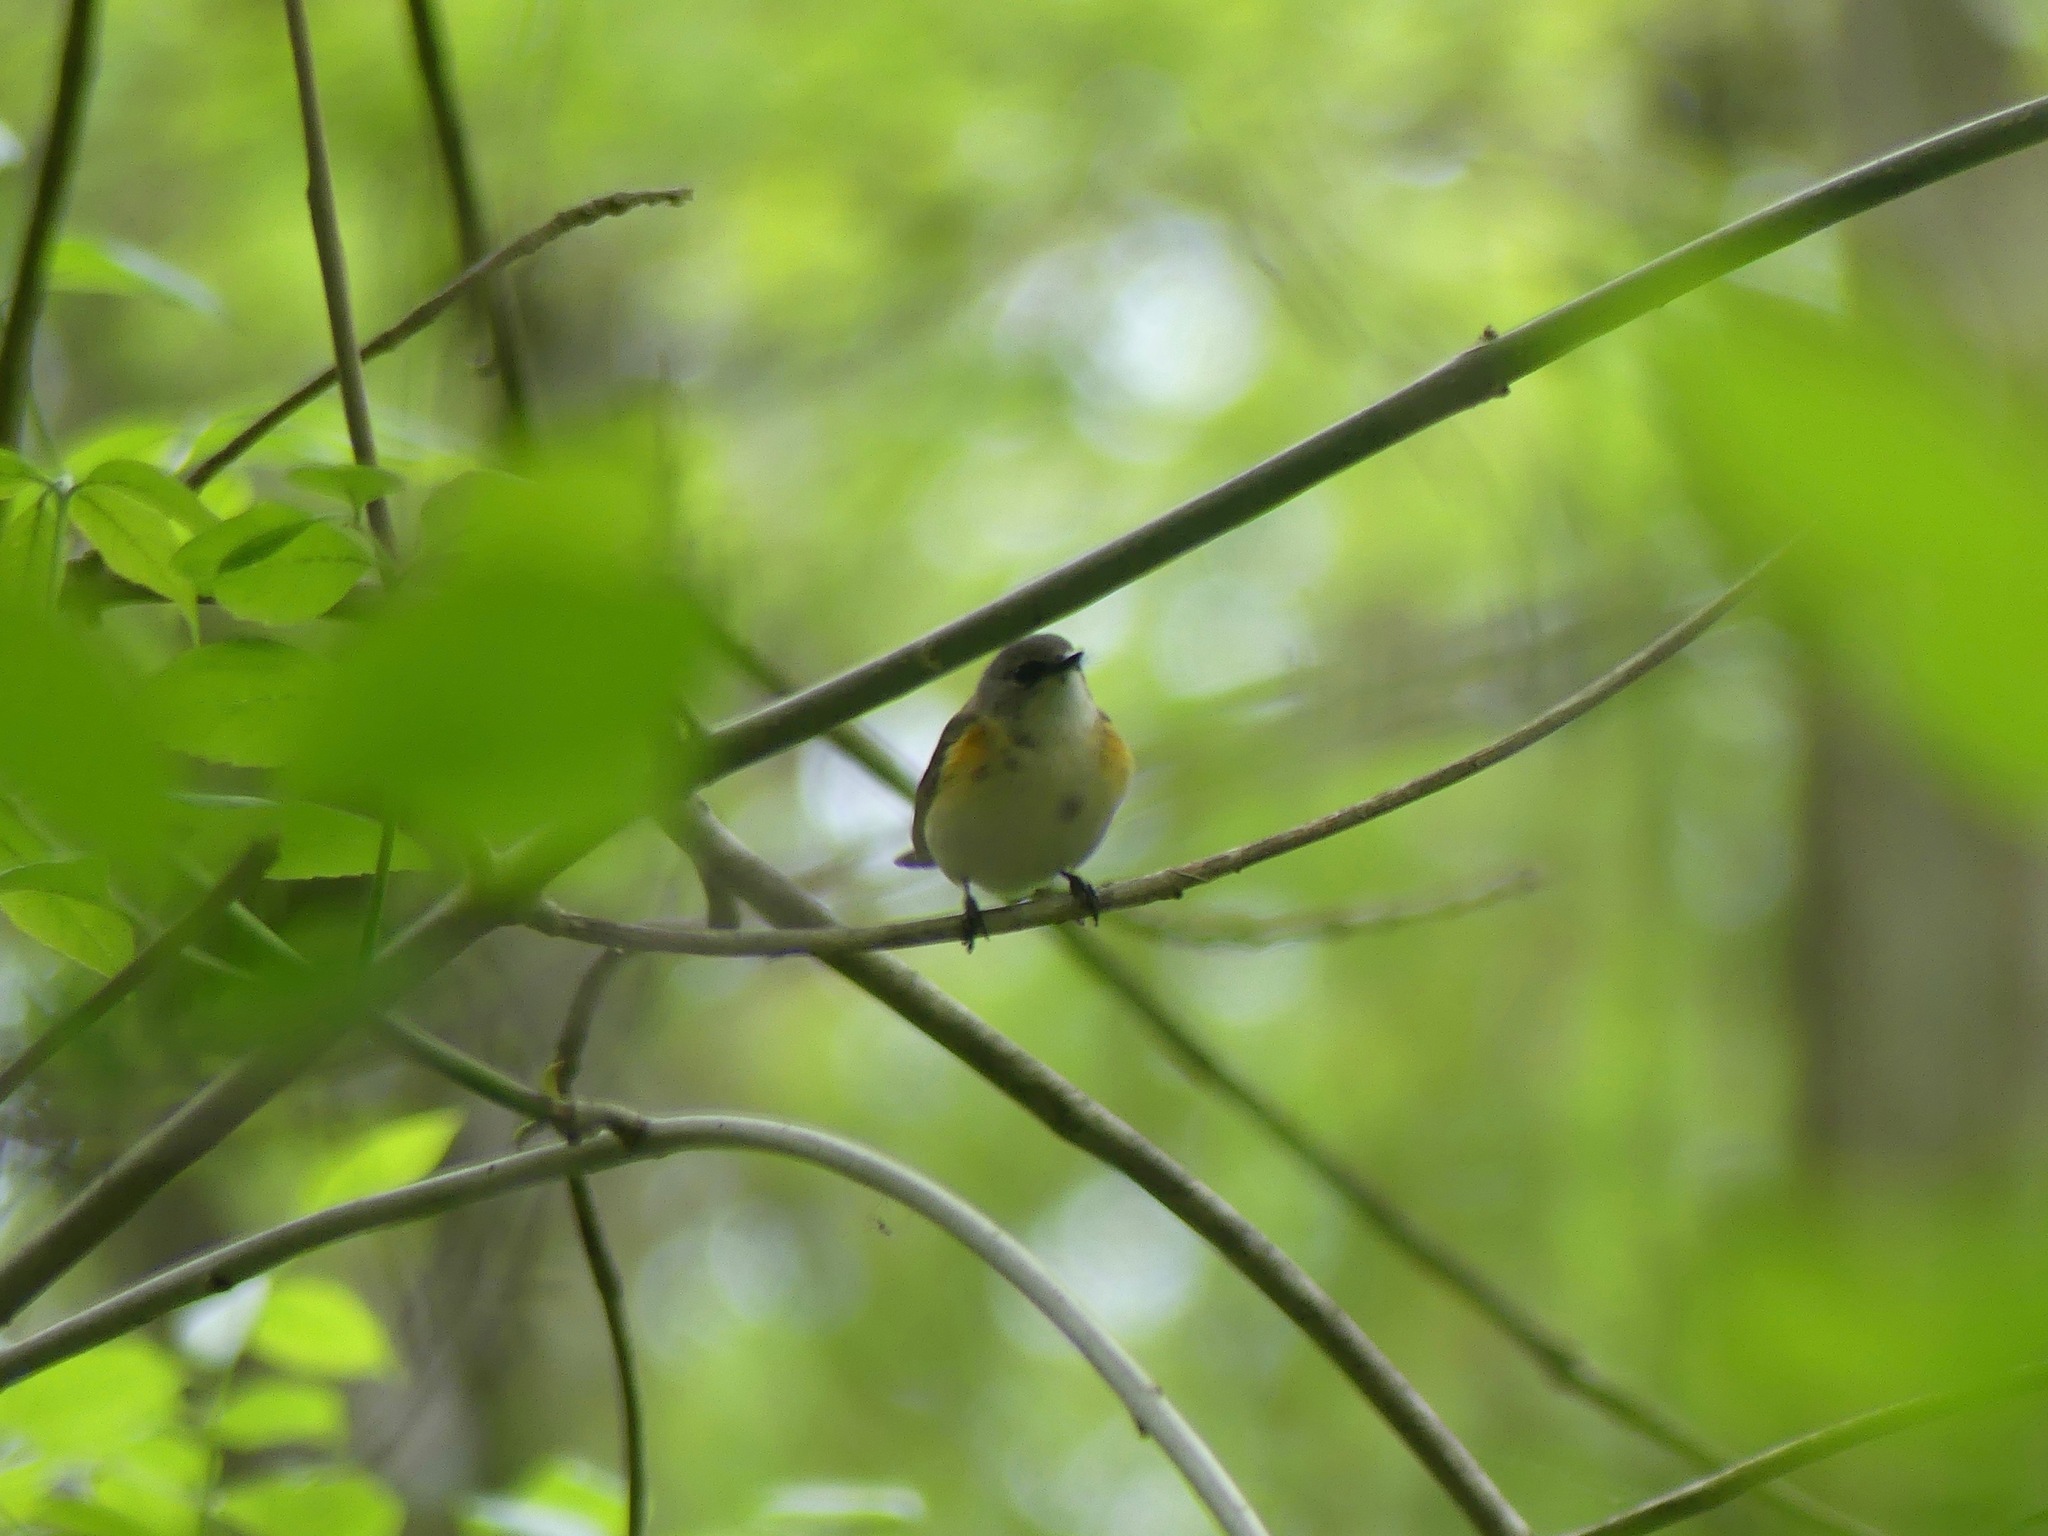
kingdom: Animalia
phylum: Chordata
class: Aves
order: Passeriformes
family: Parulidae
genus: Setophaga
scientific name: Setophaga ruticilla
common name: American redstart
